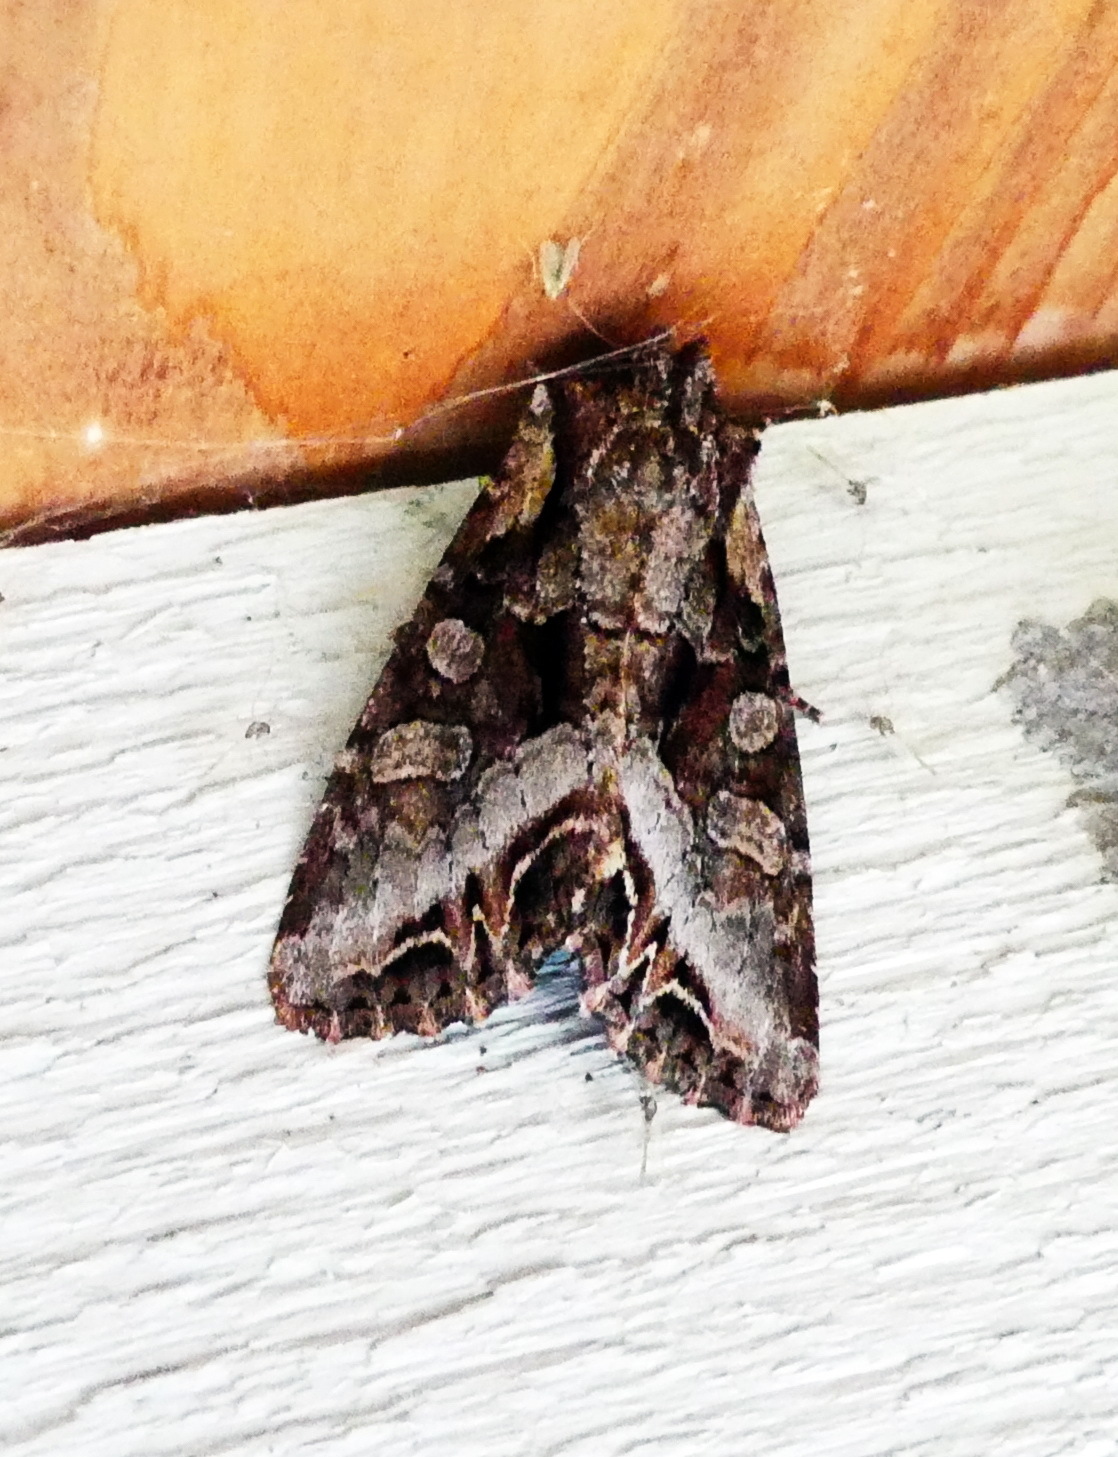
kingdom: Animalia
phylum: Arthropoda
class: Insecta
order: Lepidoptera
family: Noctuidae
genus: Lacanobia
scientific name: Lacanobia grandis
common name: Grand arches moth
